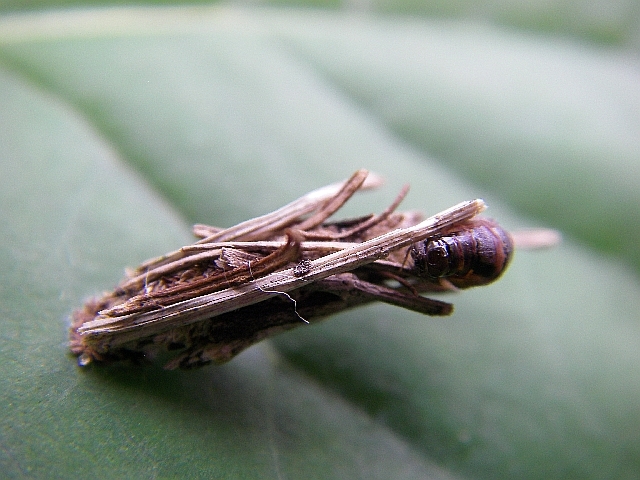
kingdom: Animalia
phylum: Arthropoda
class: Insecta
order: Lepidoptera
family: Psychidae
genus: Psyche
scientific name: Psyche casta
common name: Common sweep
